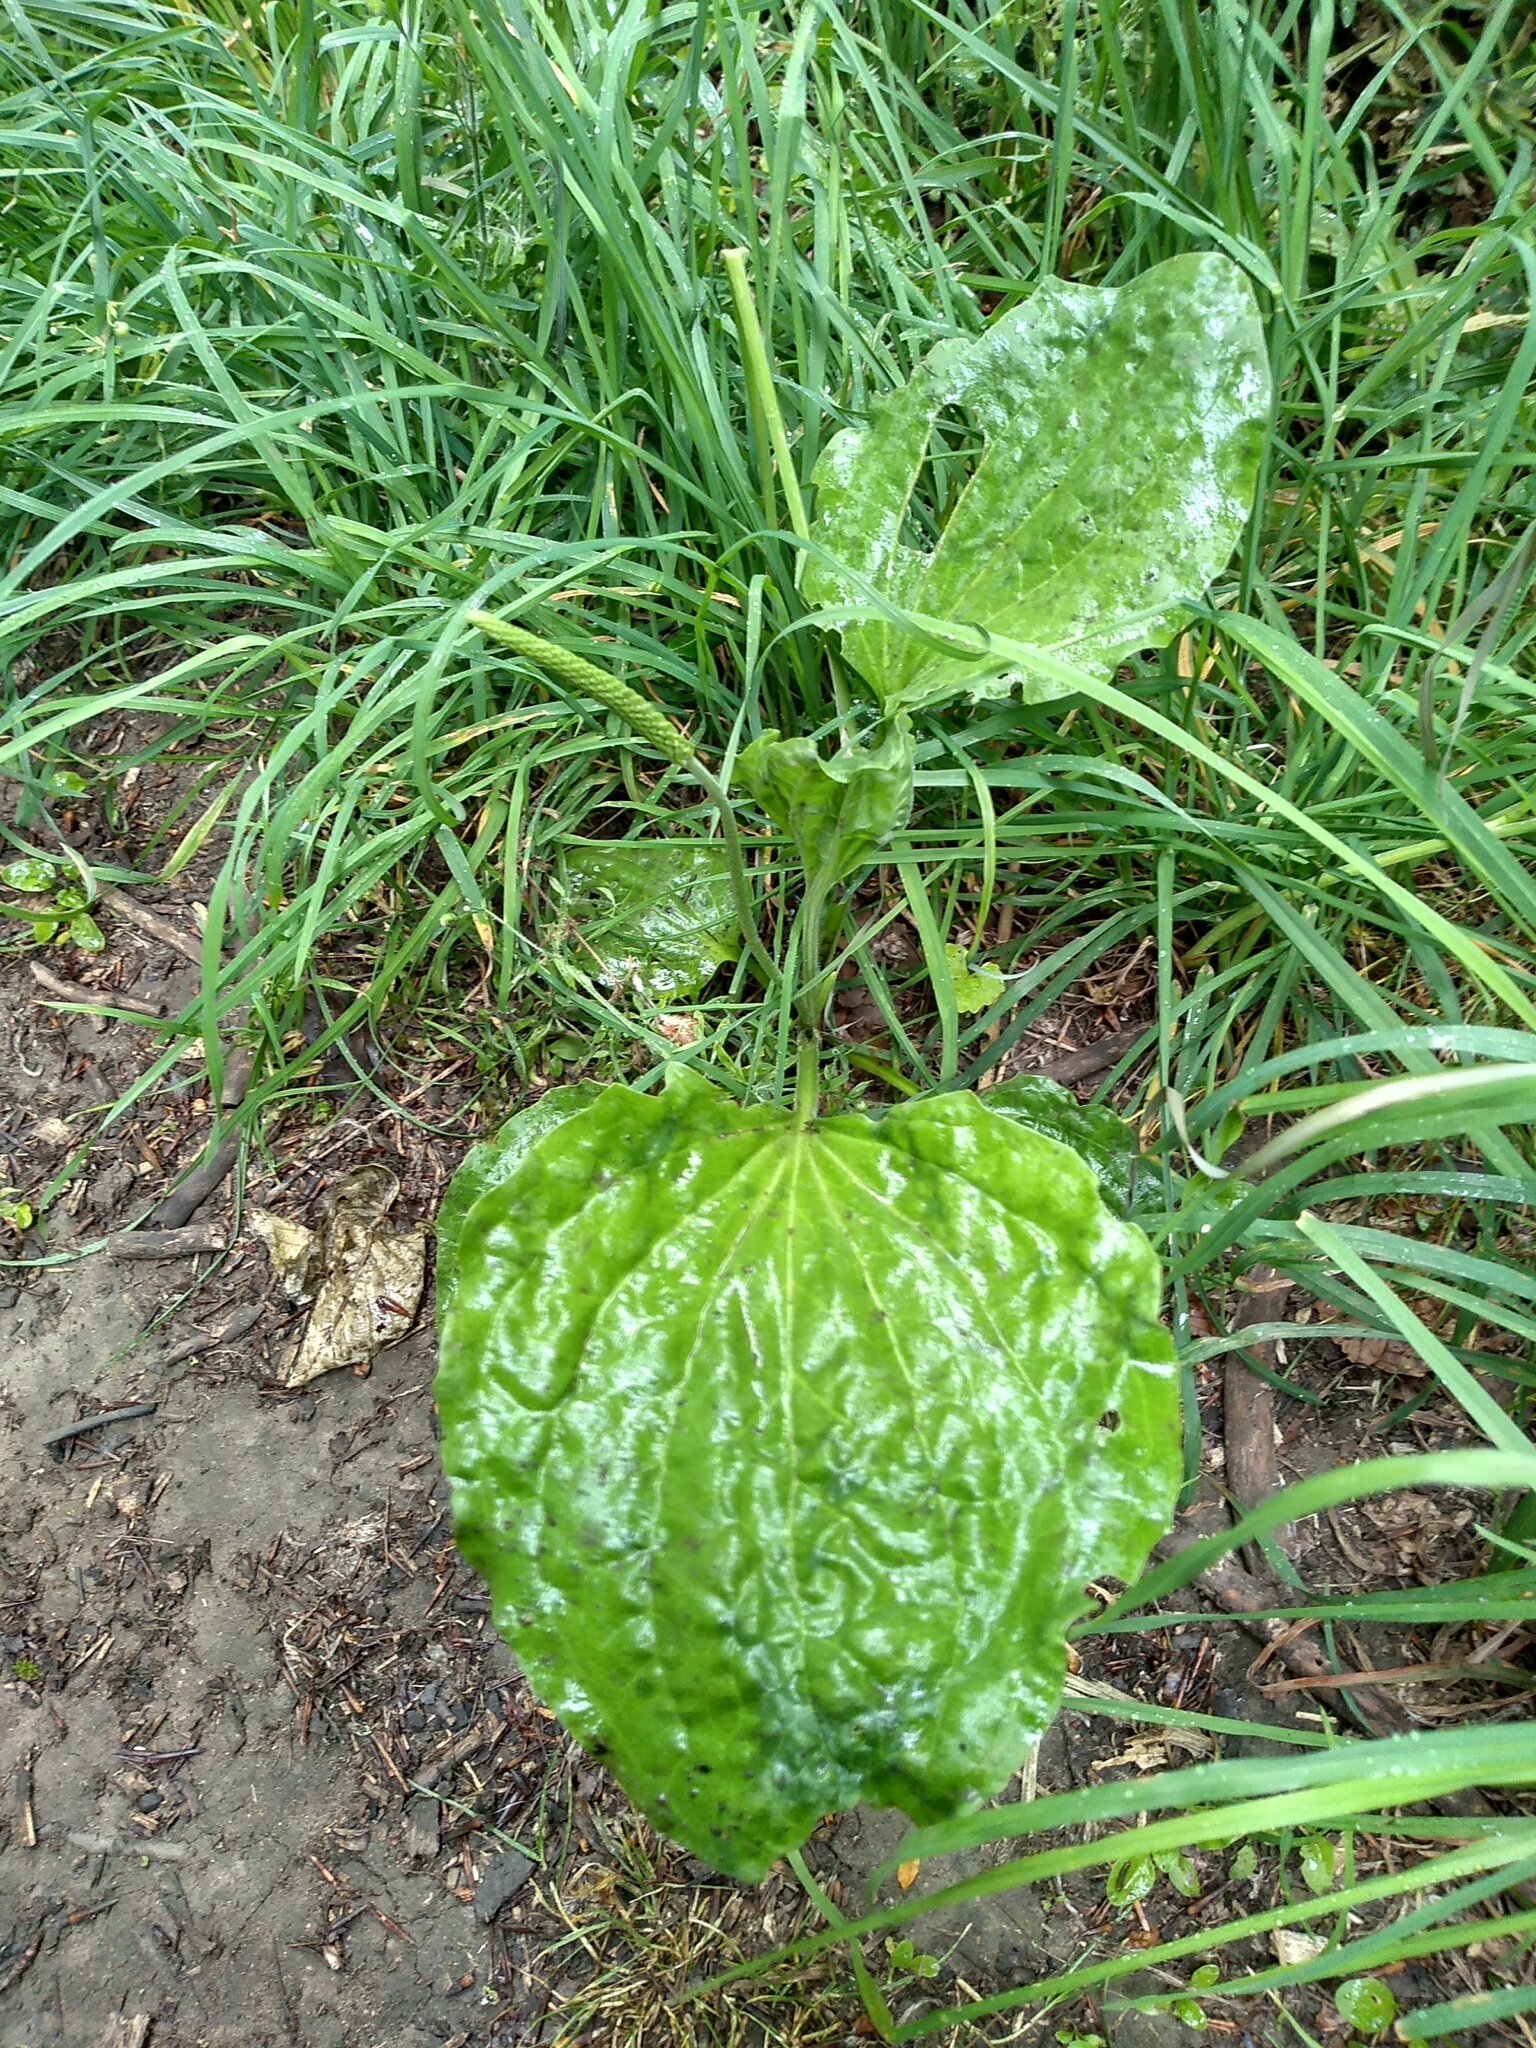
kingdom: Plantae
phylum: Tracheophyta
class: Magnoliopsida
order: Lamiales
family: Plantaginaceae
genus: Plantago
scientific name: Plantago major
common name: Common plantain
